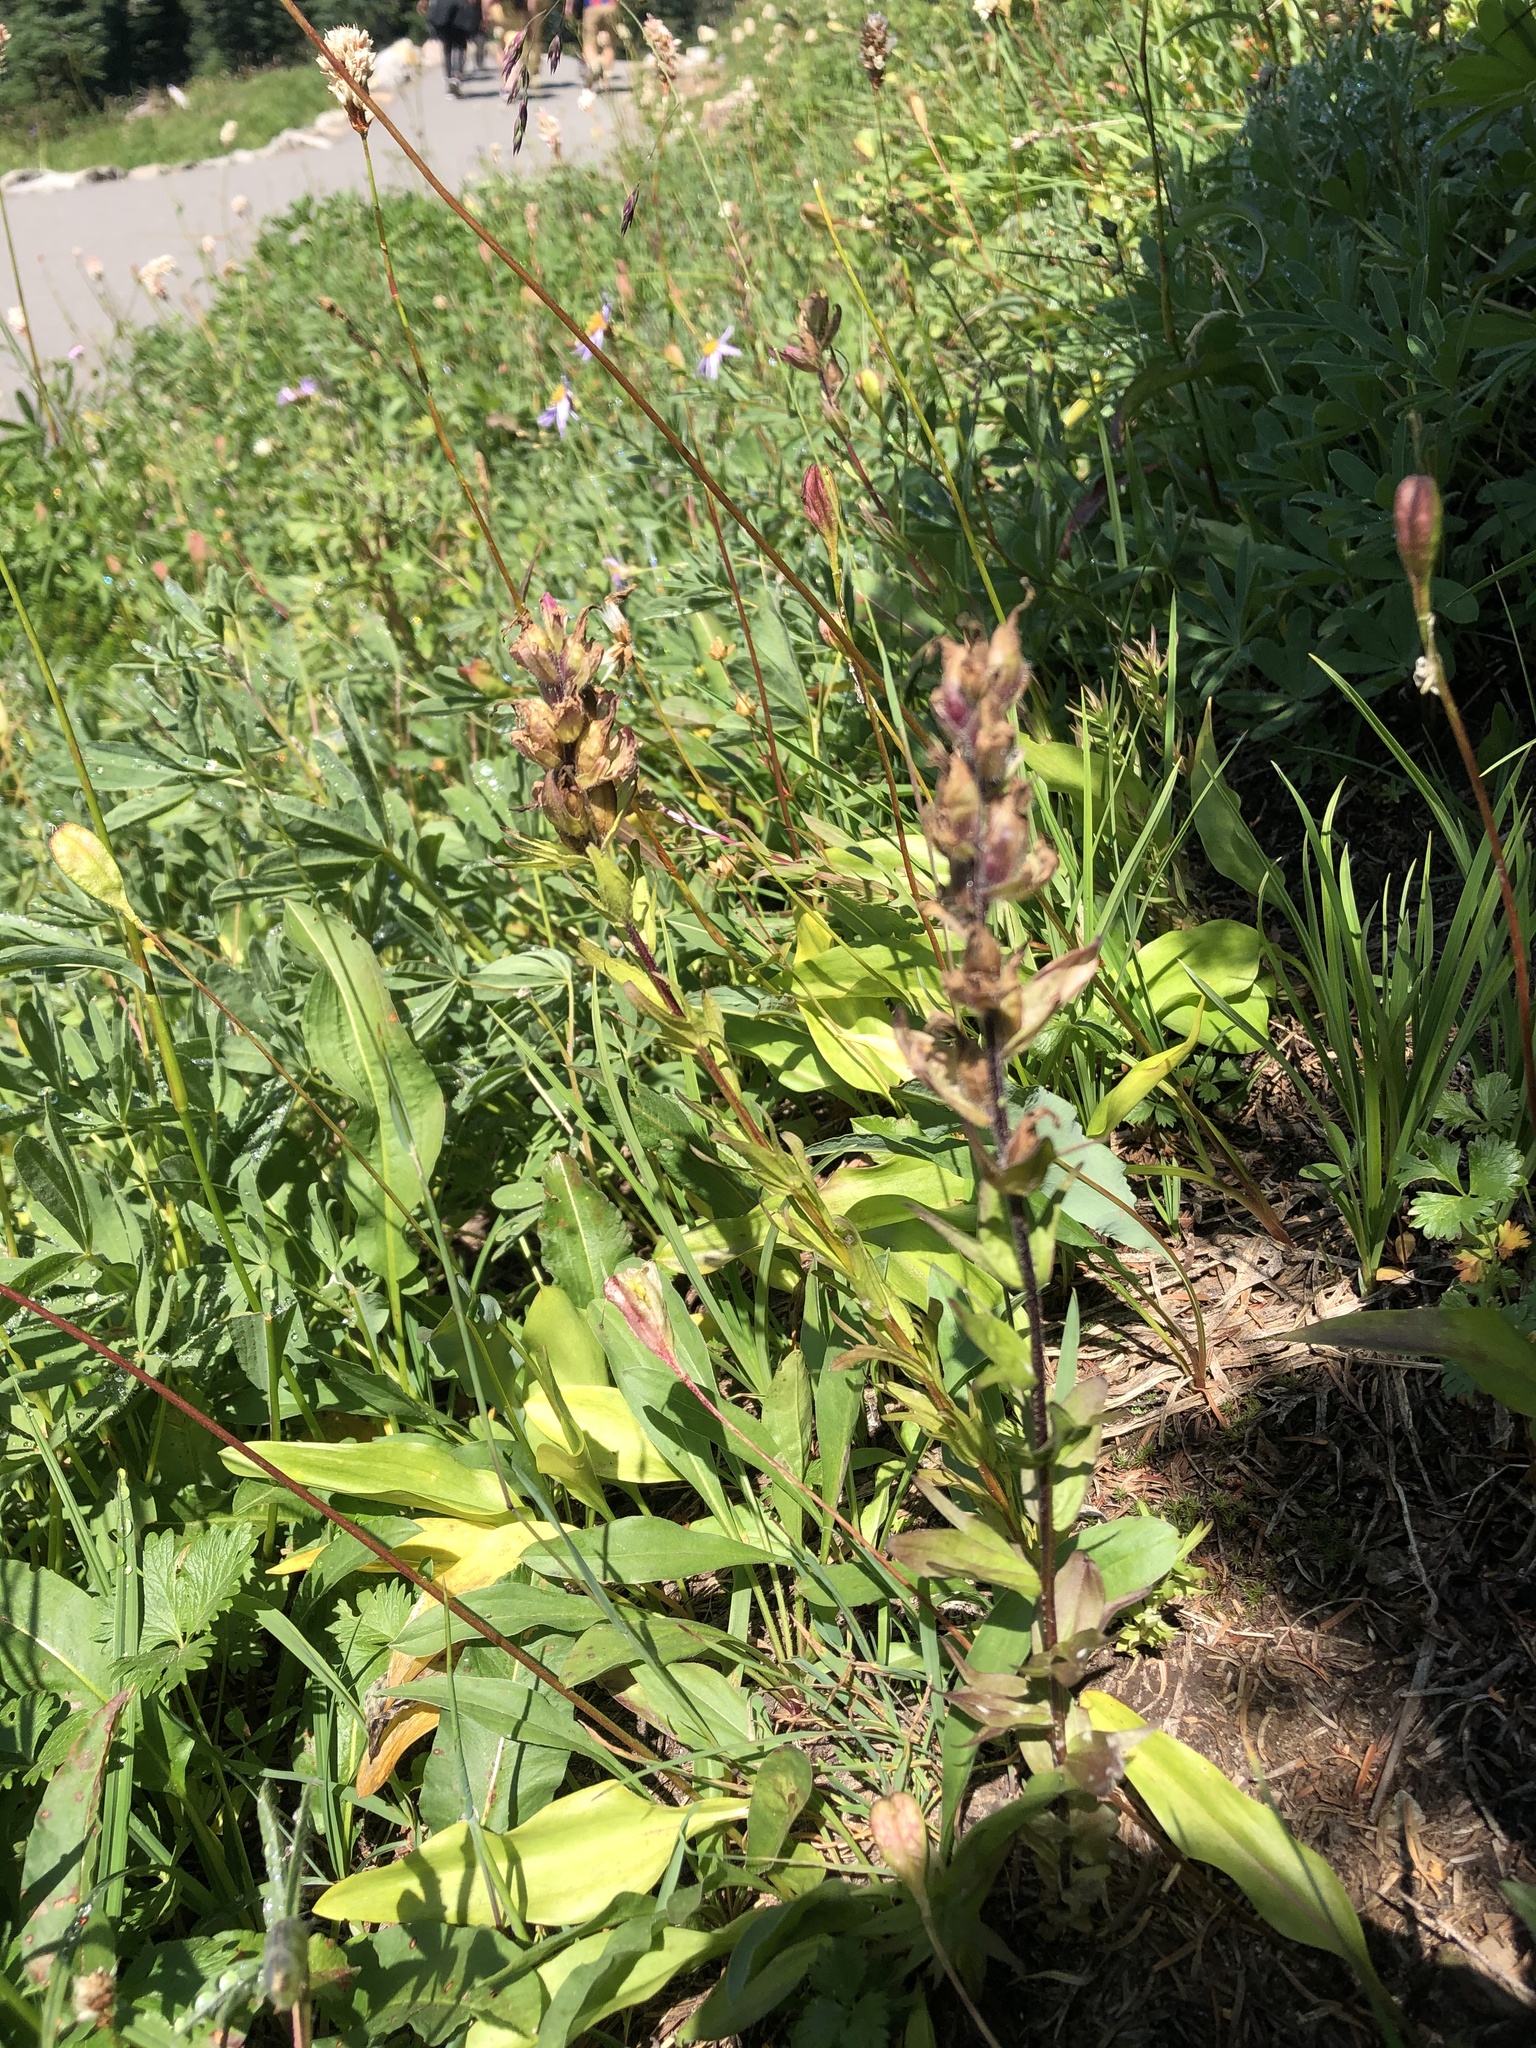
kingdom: Plantae
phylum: Tracheophyta
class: Magnoliopsida
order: Lamiales
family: Orobanchaceae
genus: Castilleja
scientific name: Castilleja parviflora
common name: Mountain paintbrush
